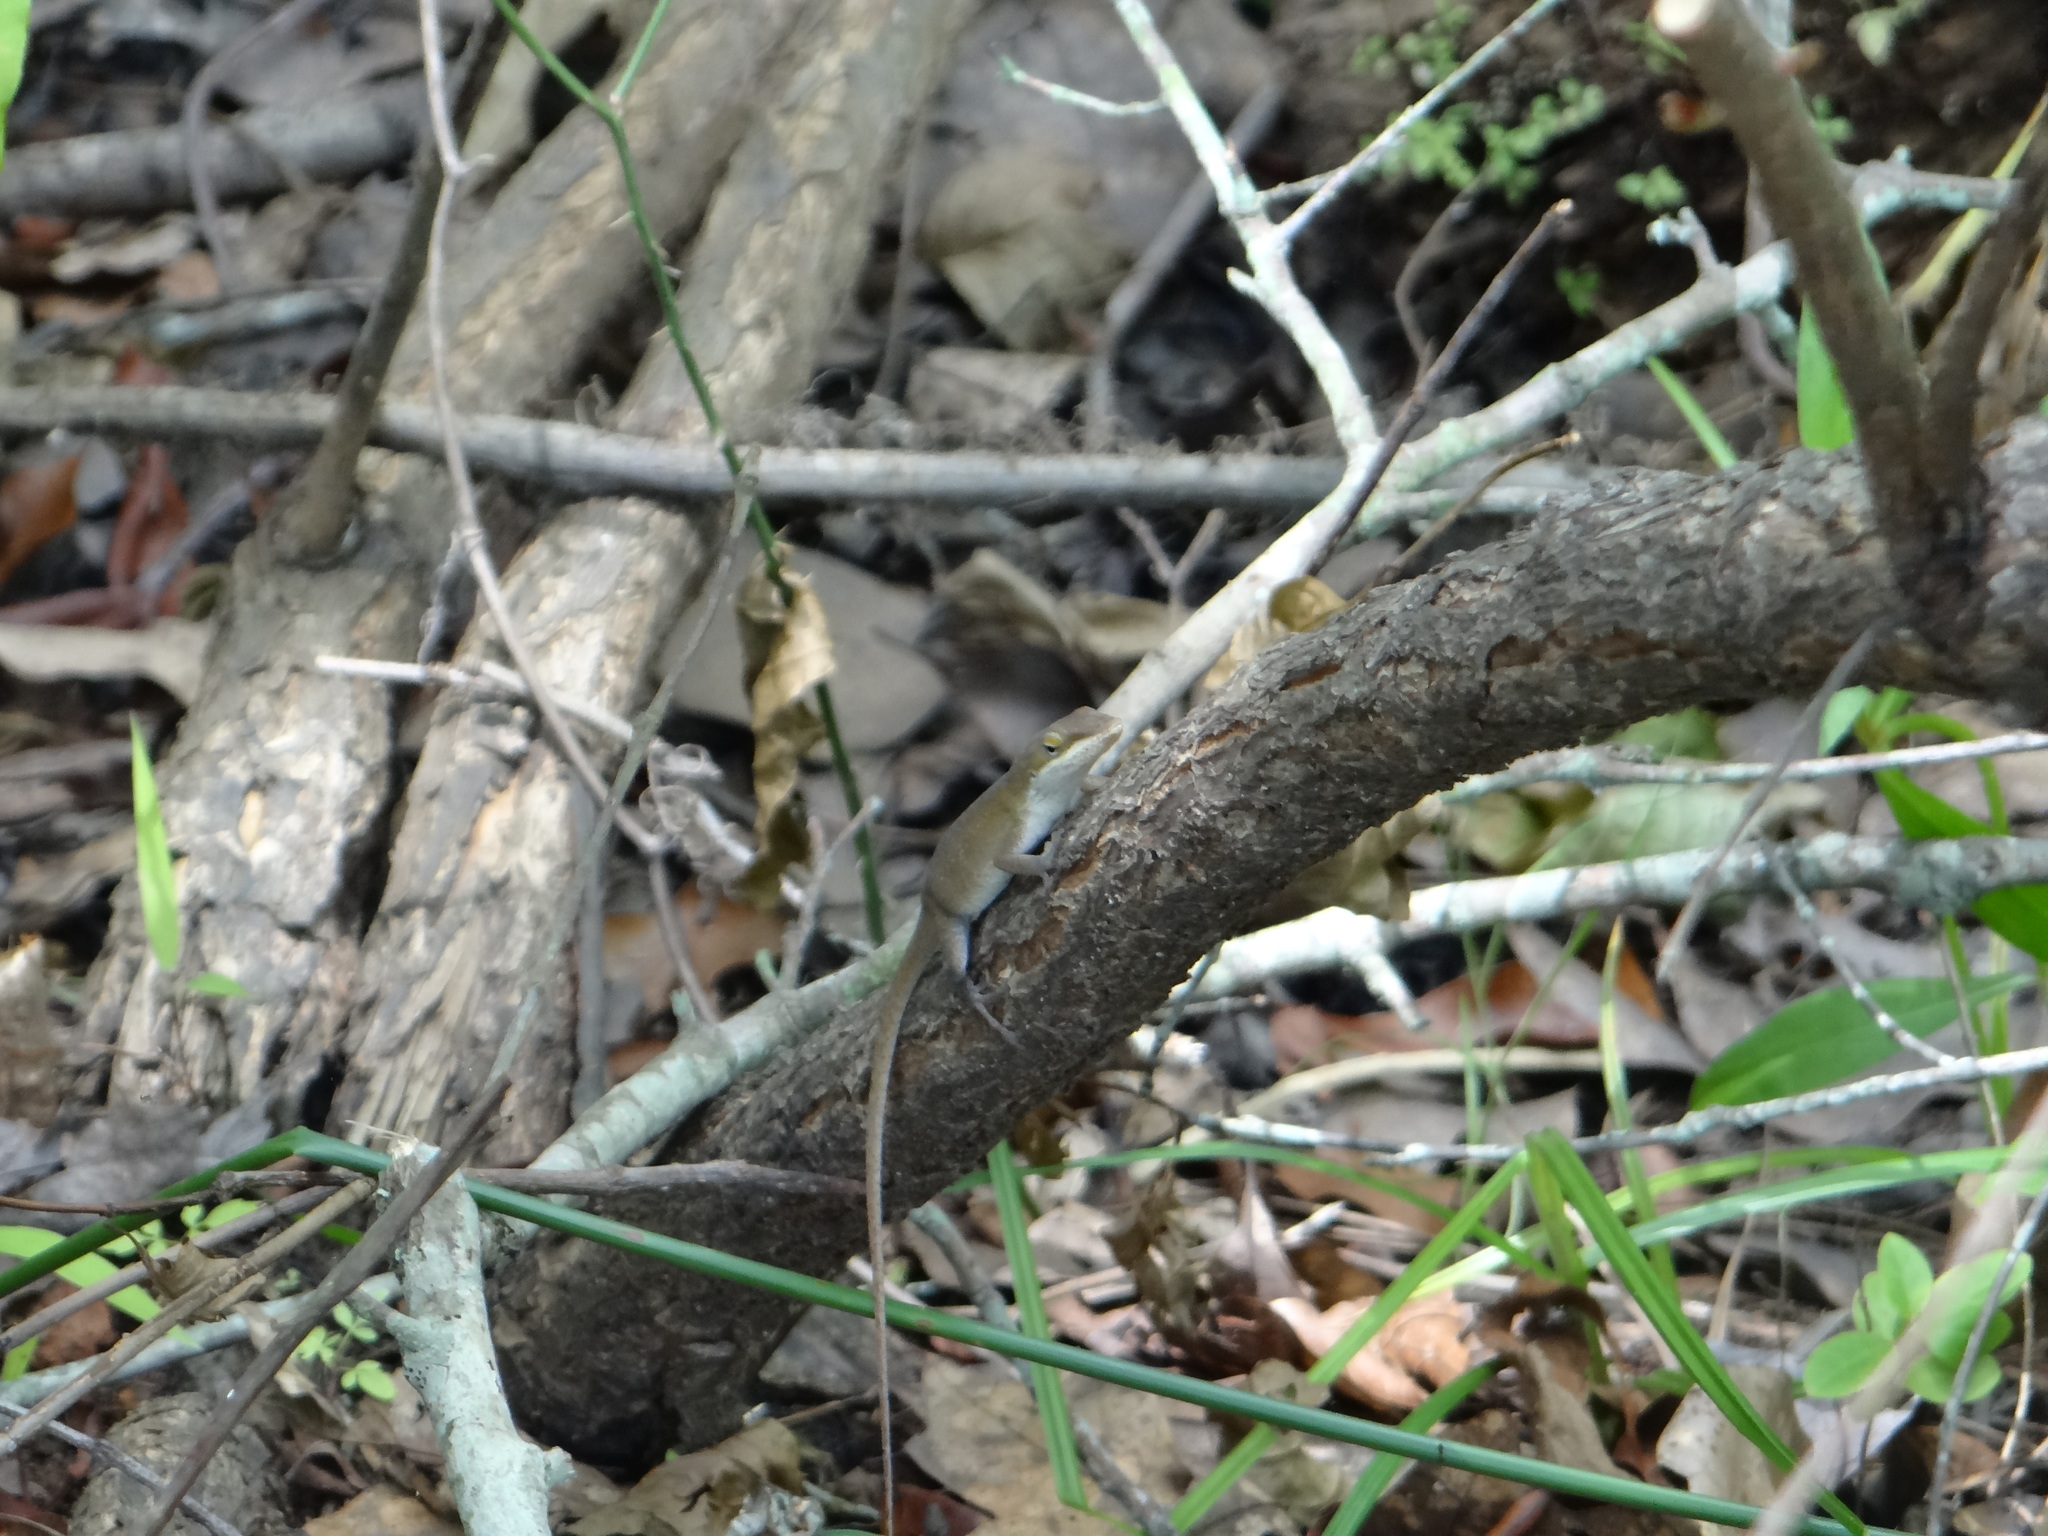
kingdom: Animalia
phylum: Chordata
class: Squamata
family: Dactyloidae
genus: Anolis
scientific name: Anolis carolinensis
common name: Green anole
